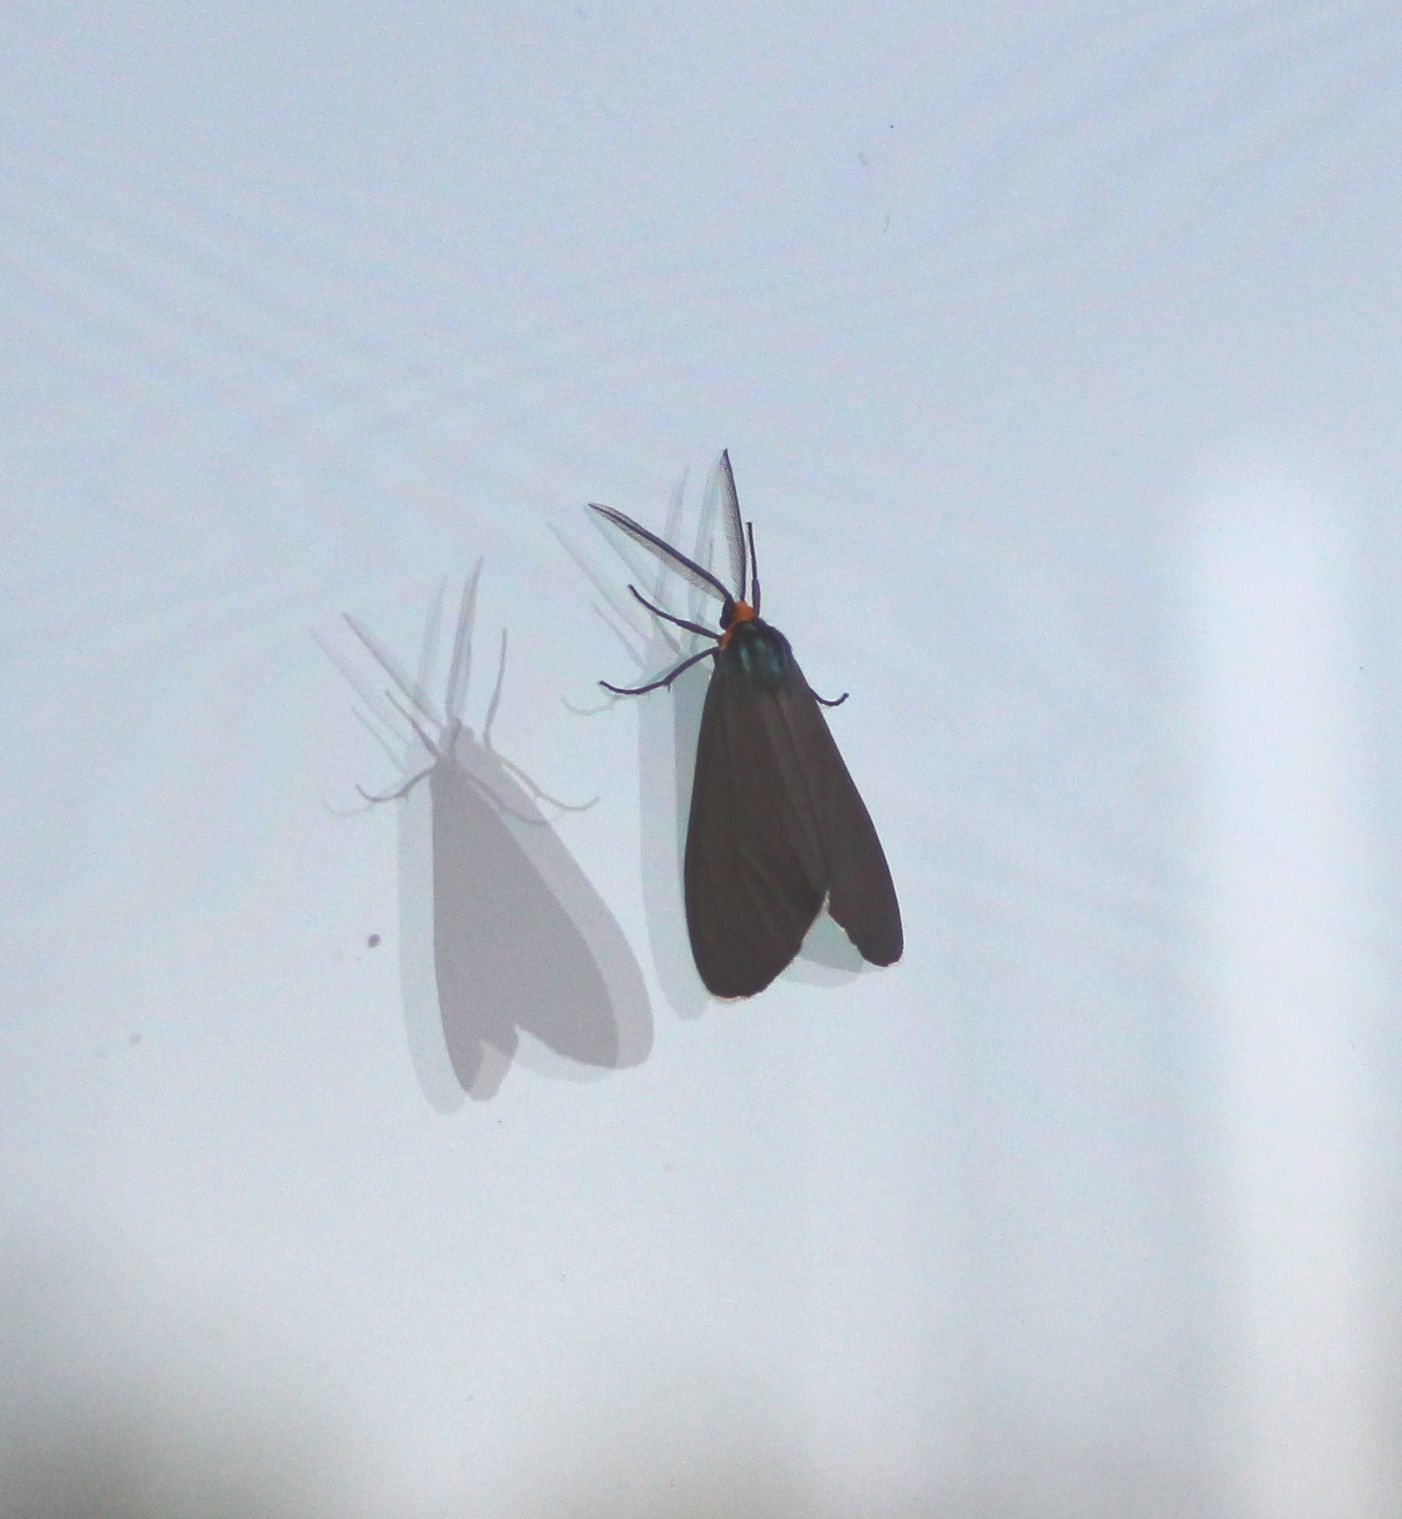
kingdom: Animalia
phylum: Arthropoda
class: Insecta
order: Lepidoptera
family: Erebidae
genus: Ctenucha
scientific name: Ctenucha virginica
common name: Virginia ctenucha moth
